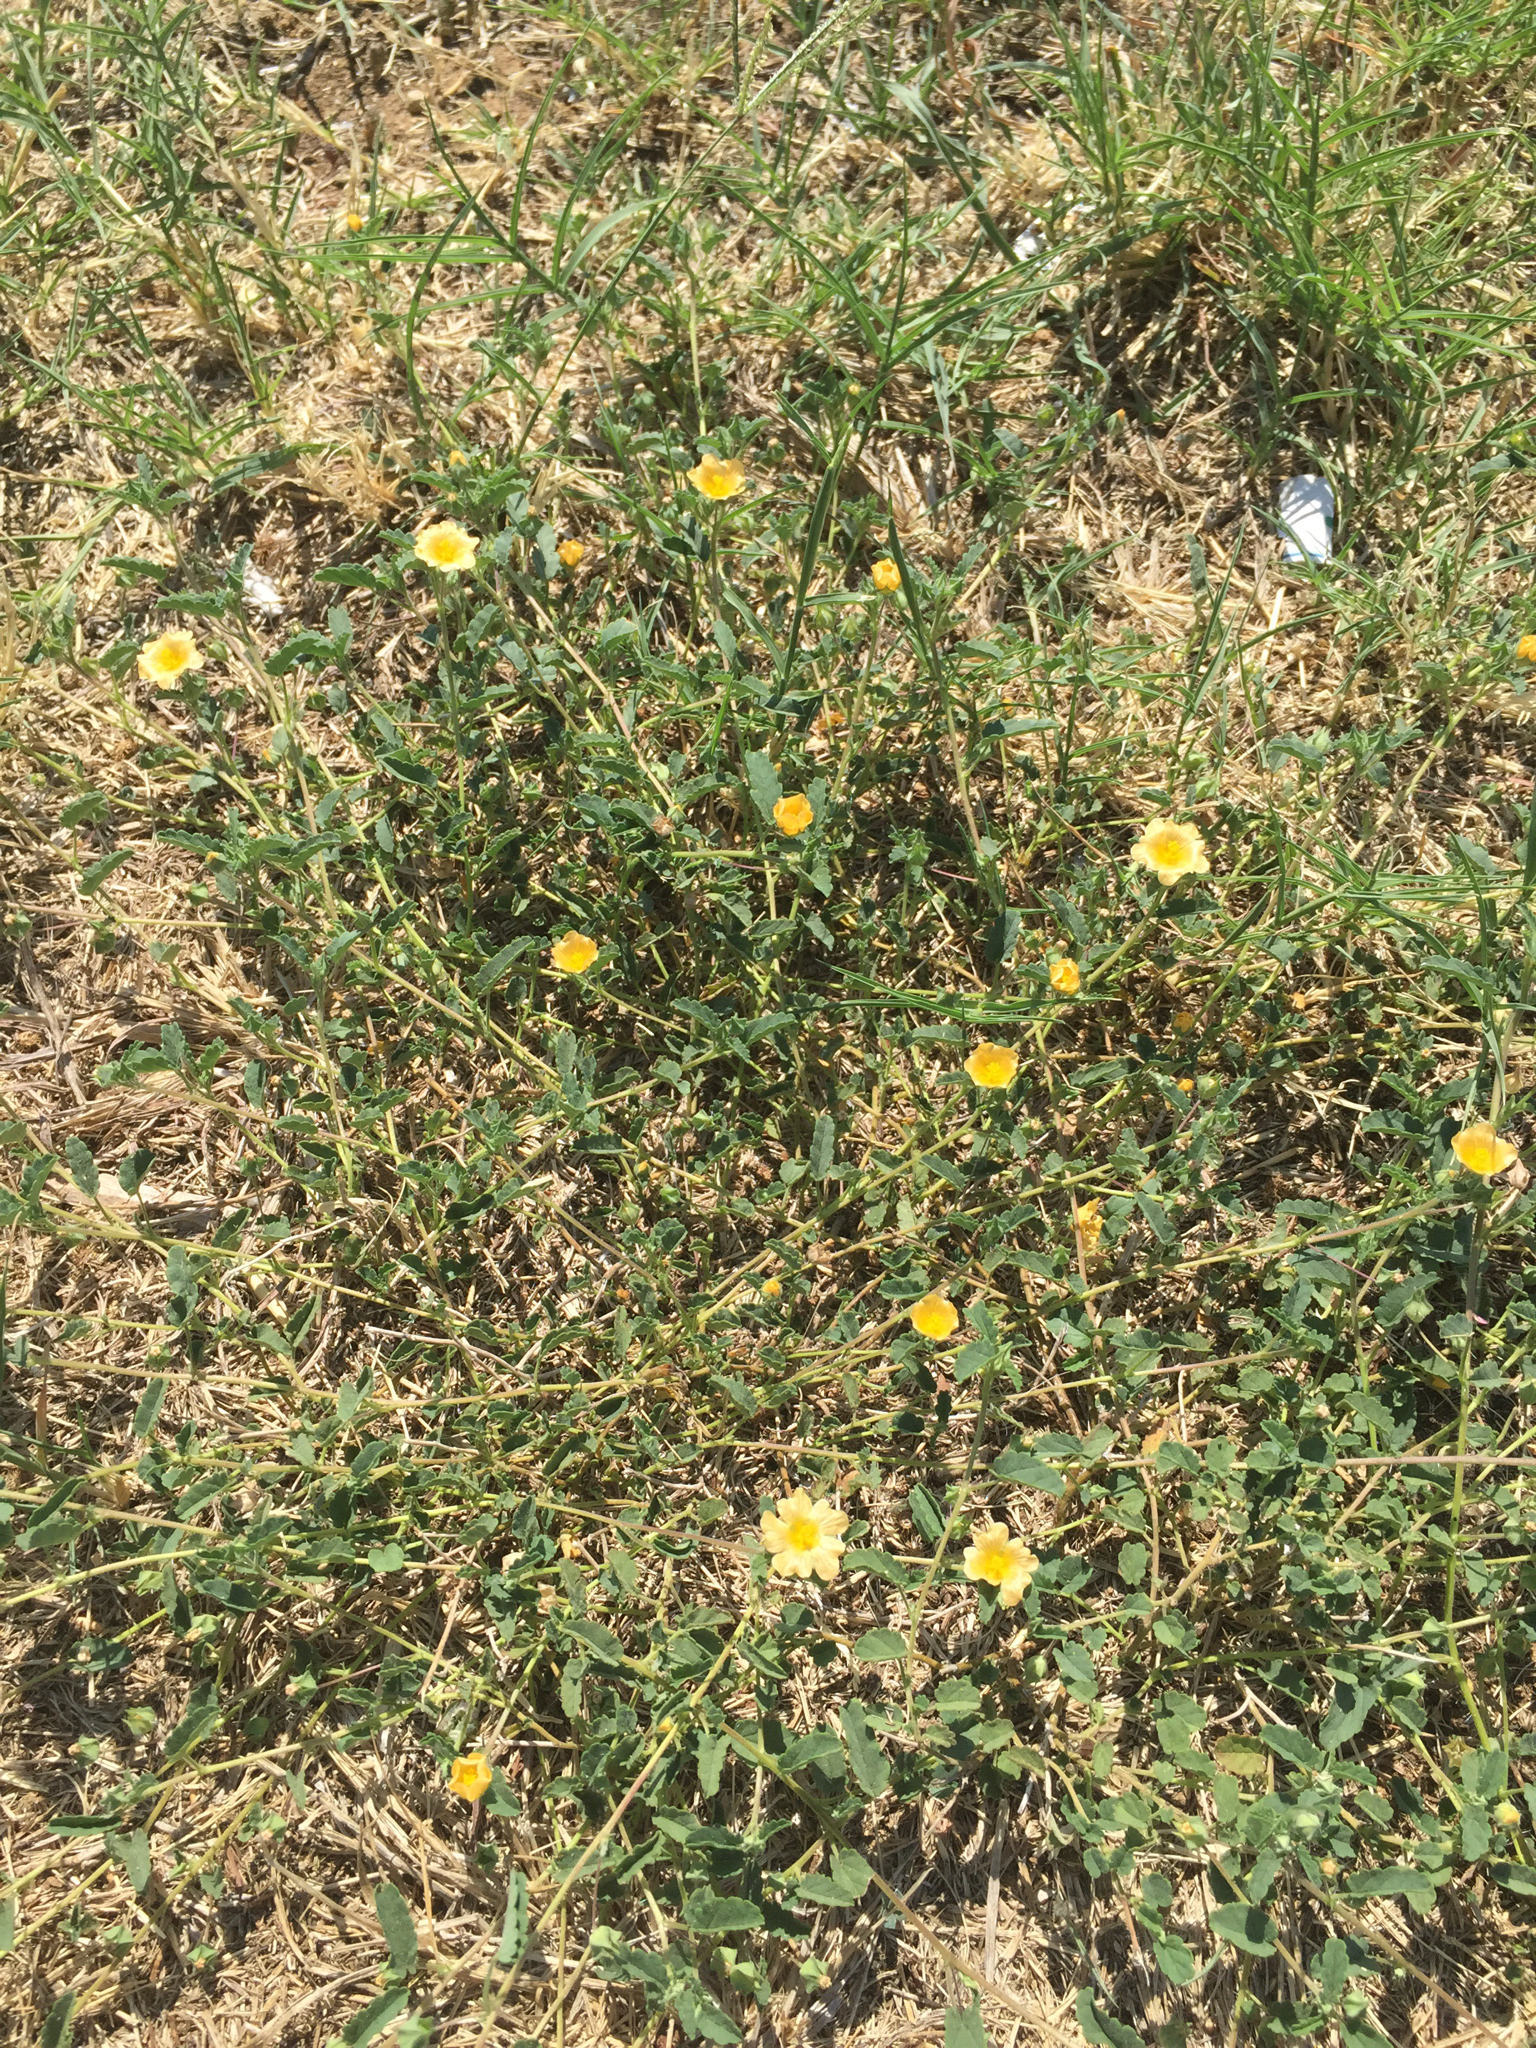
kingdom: Plantae
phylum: Tracheophyta
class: Magnoliopsida
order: Malvales
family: Malvaceae
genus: Sida
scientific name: Sida abutilifolia
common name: Spreading fanpetals
